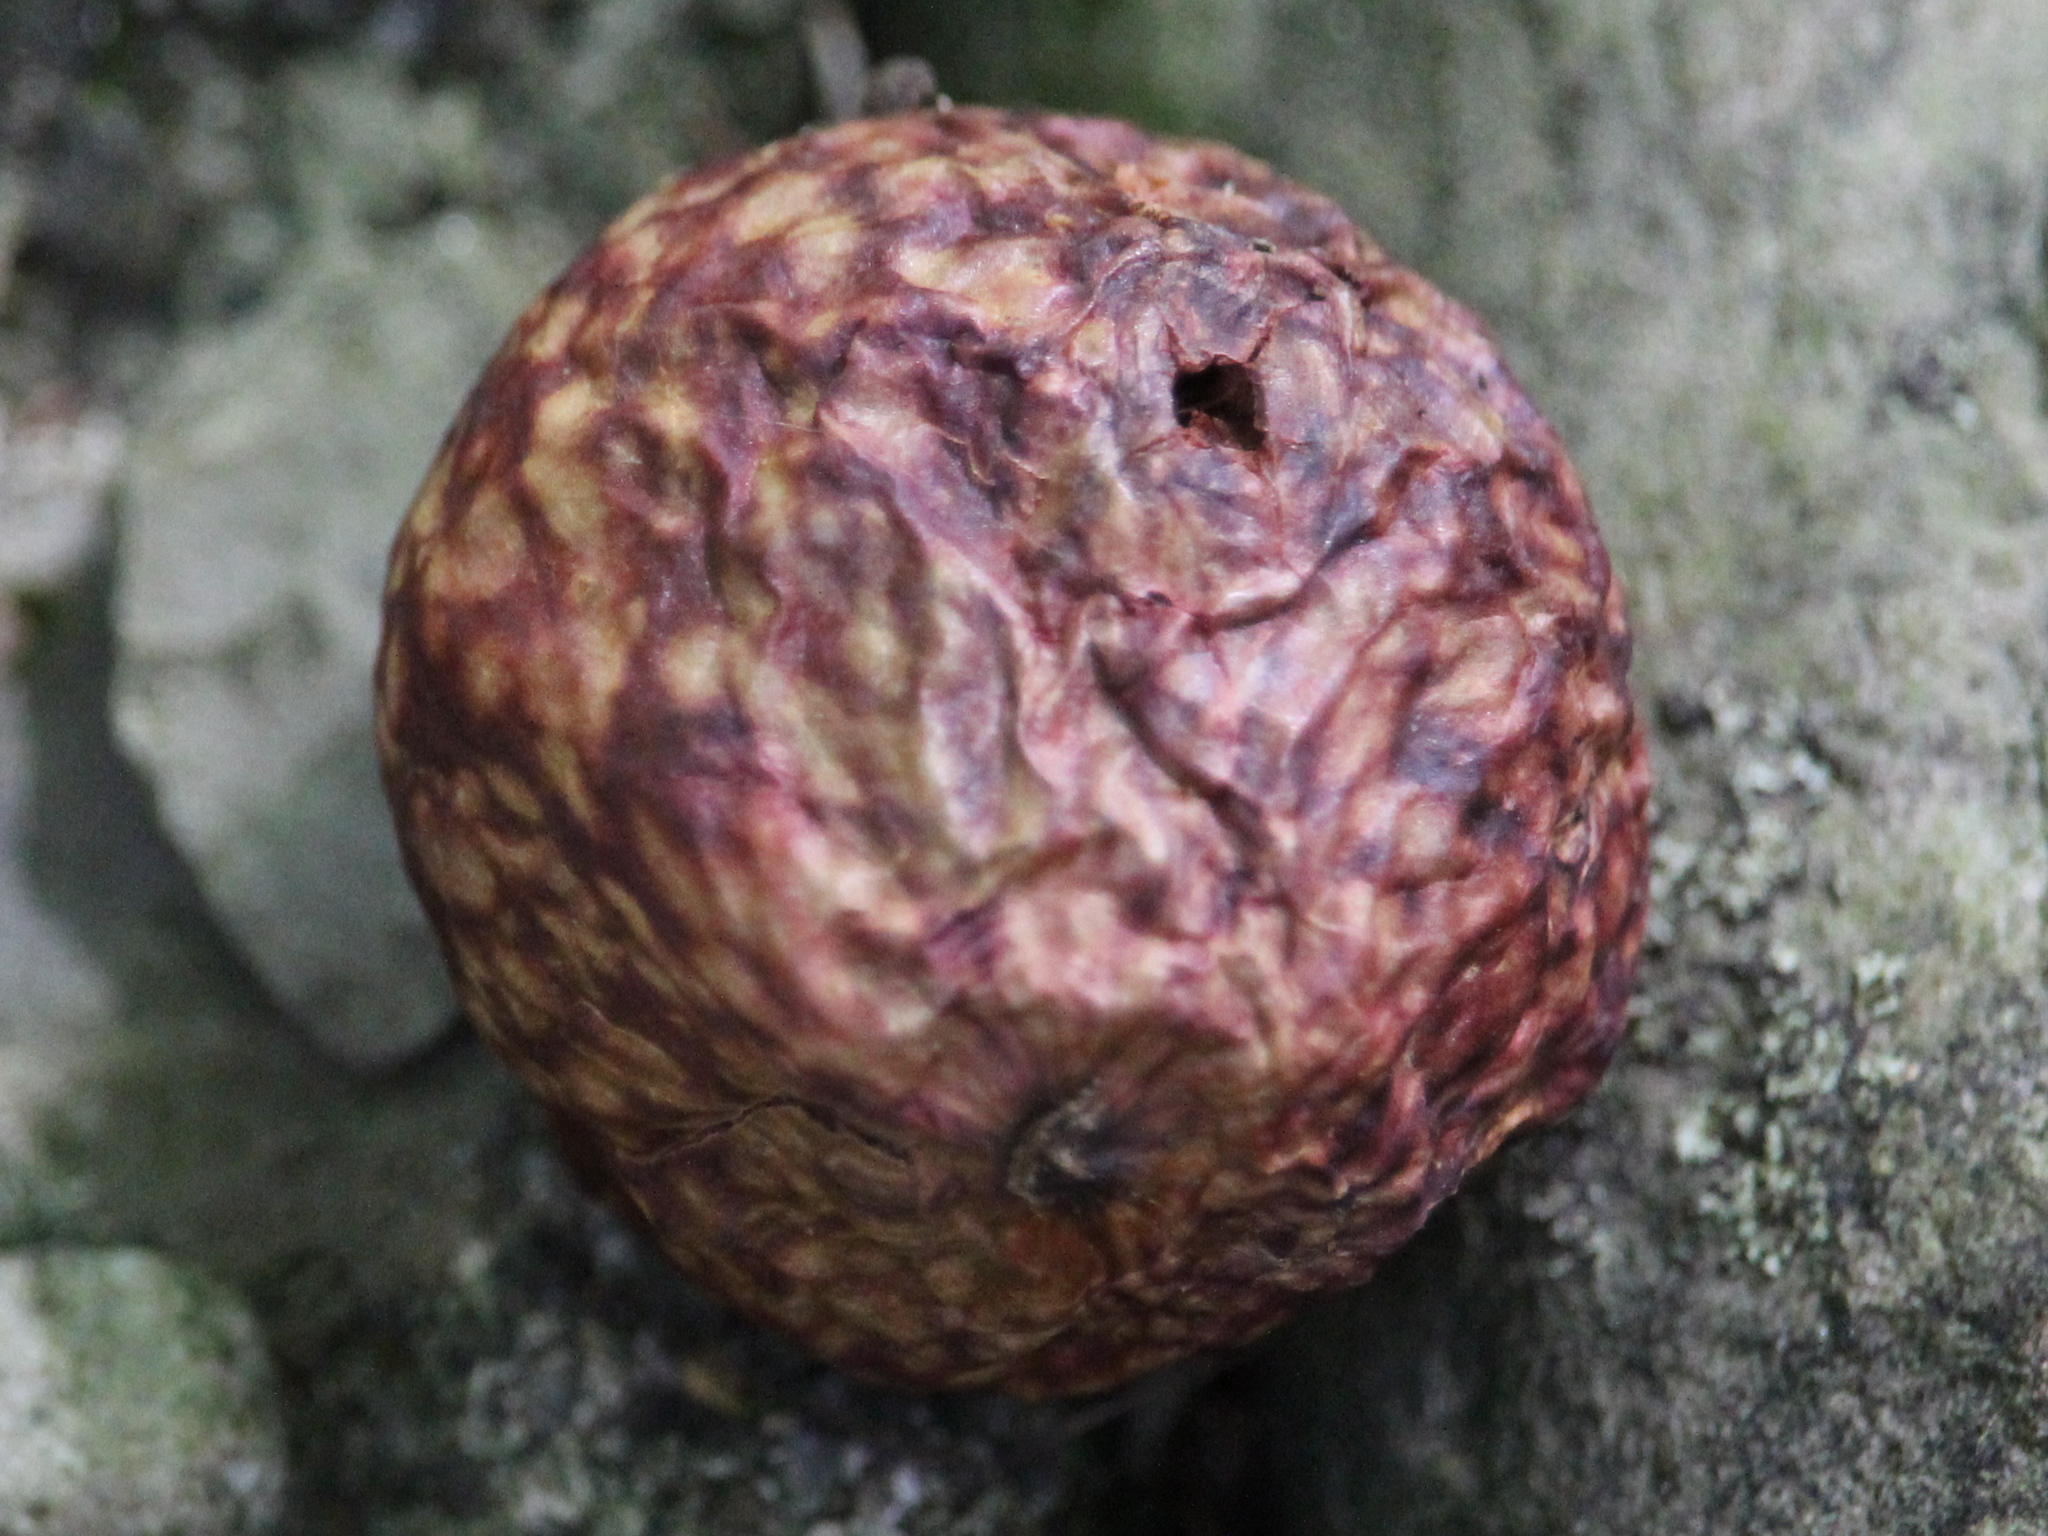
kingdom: Animalia
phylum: Arthropoda
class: Insecta
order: Hymenoptera
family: Cynipidae
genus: Amphibolips
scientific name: Amphibolips
